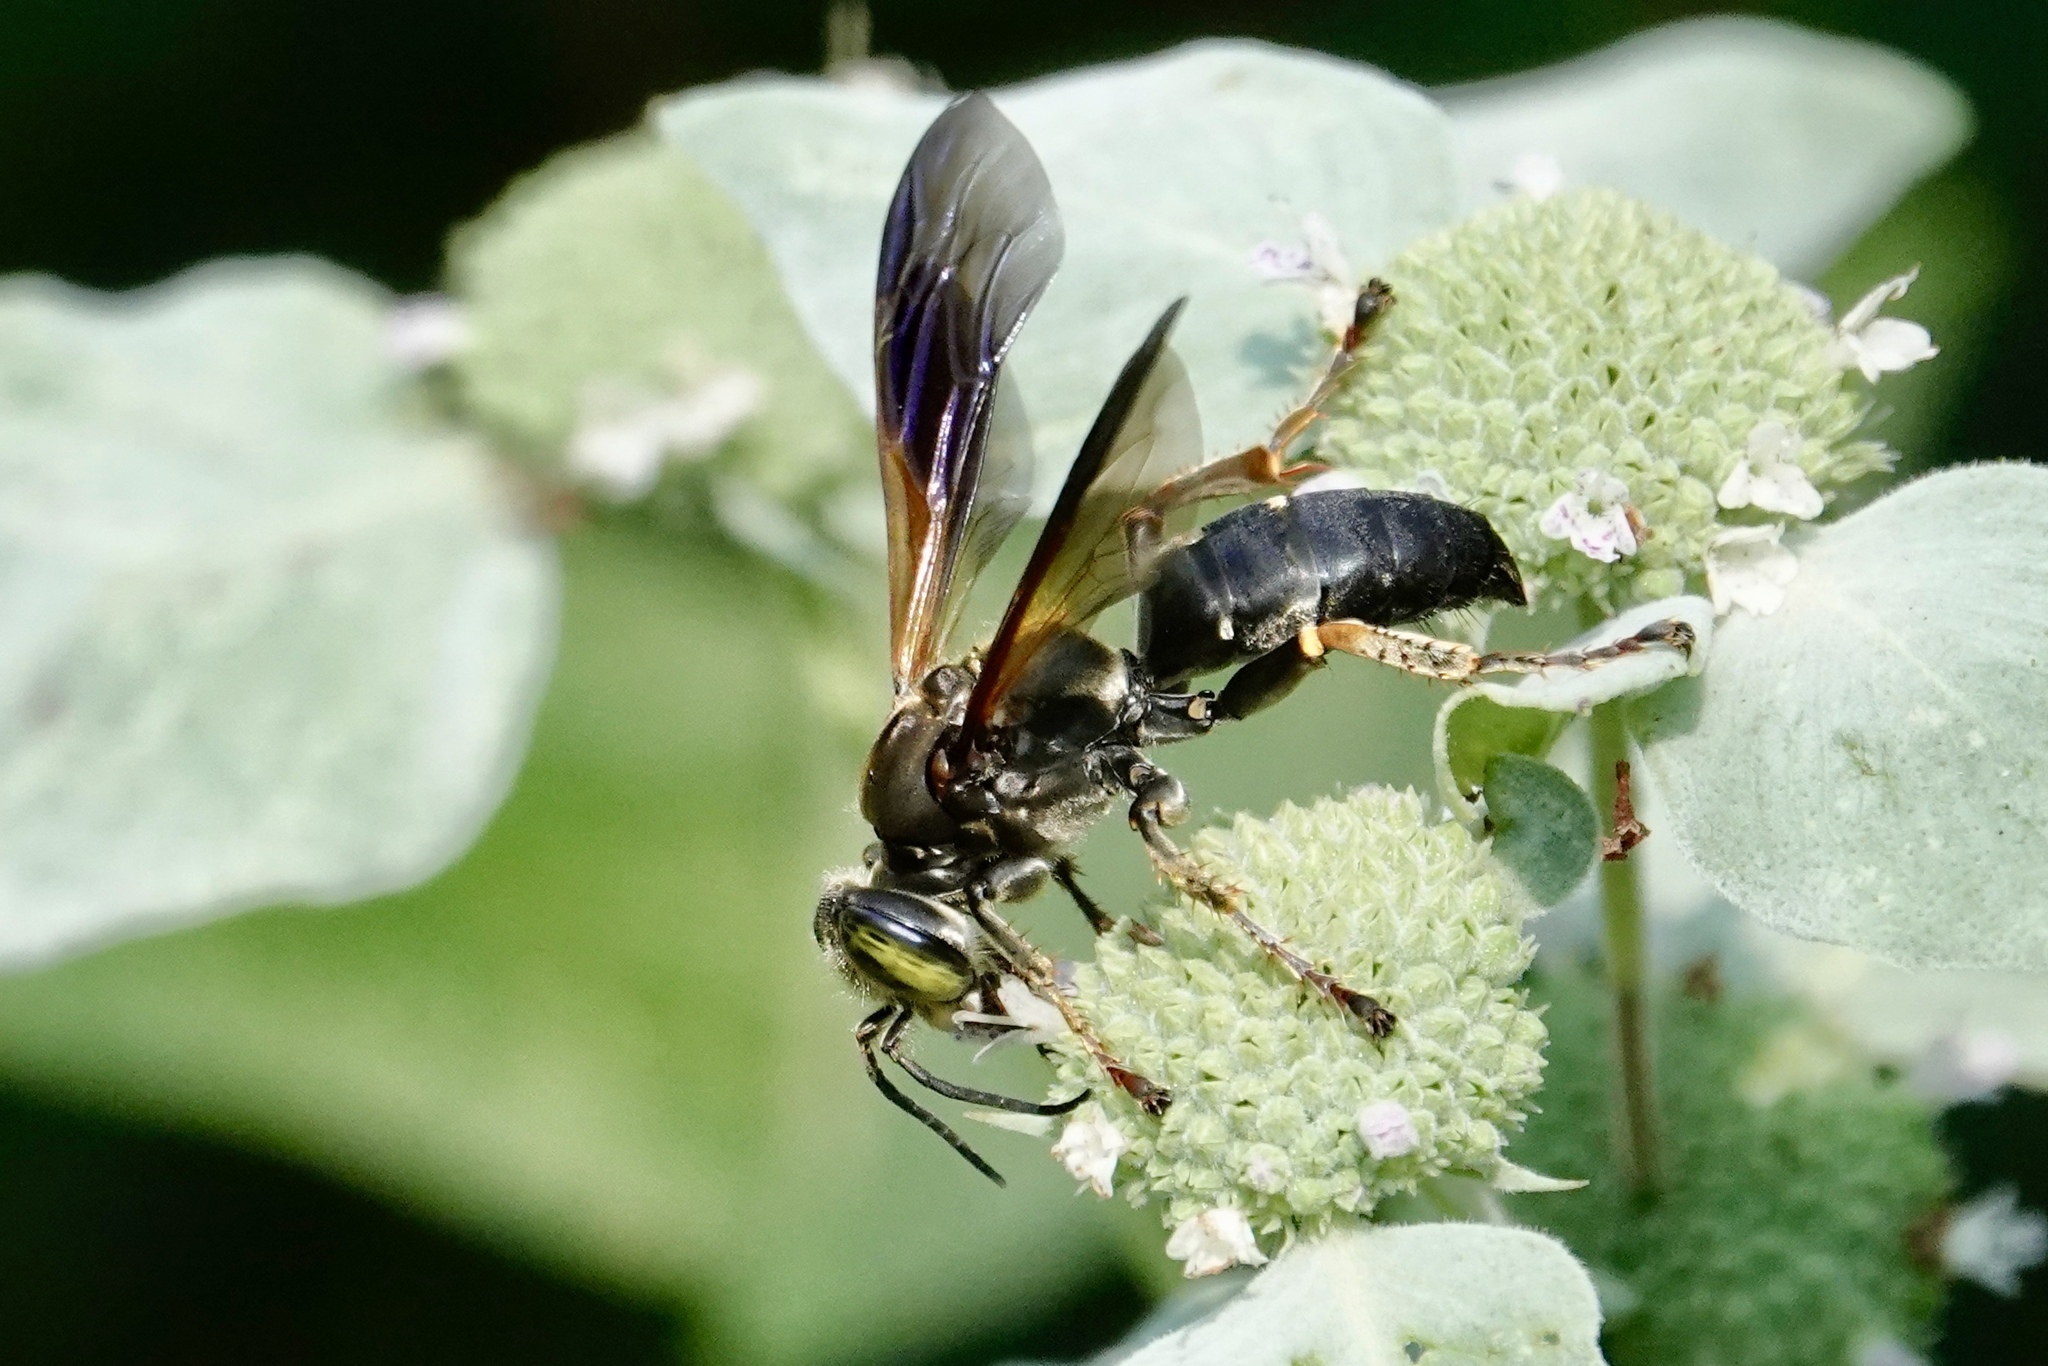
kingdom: Animalia
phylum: Arthropoda
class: Insecta
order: Hymenoptera
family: Crabronidae
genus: Tachytes
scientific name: Tachytes guatemalensis
